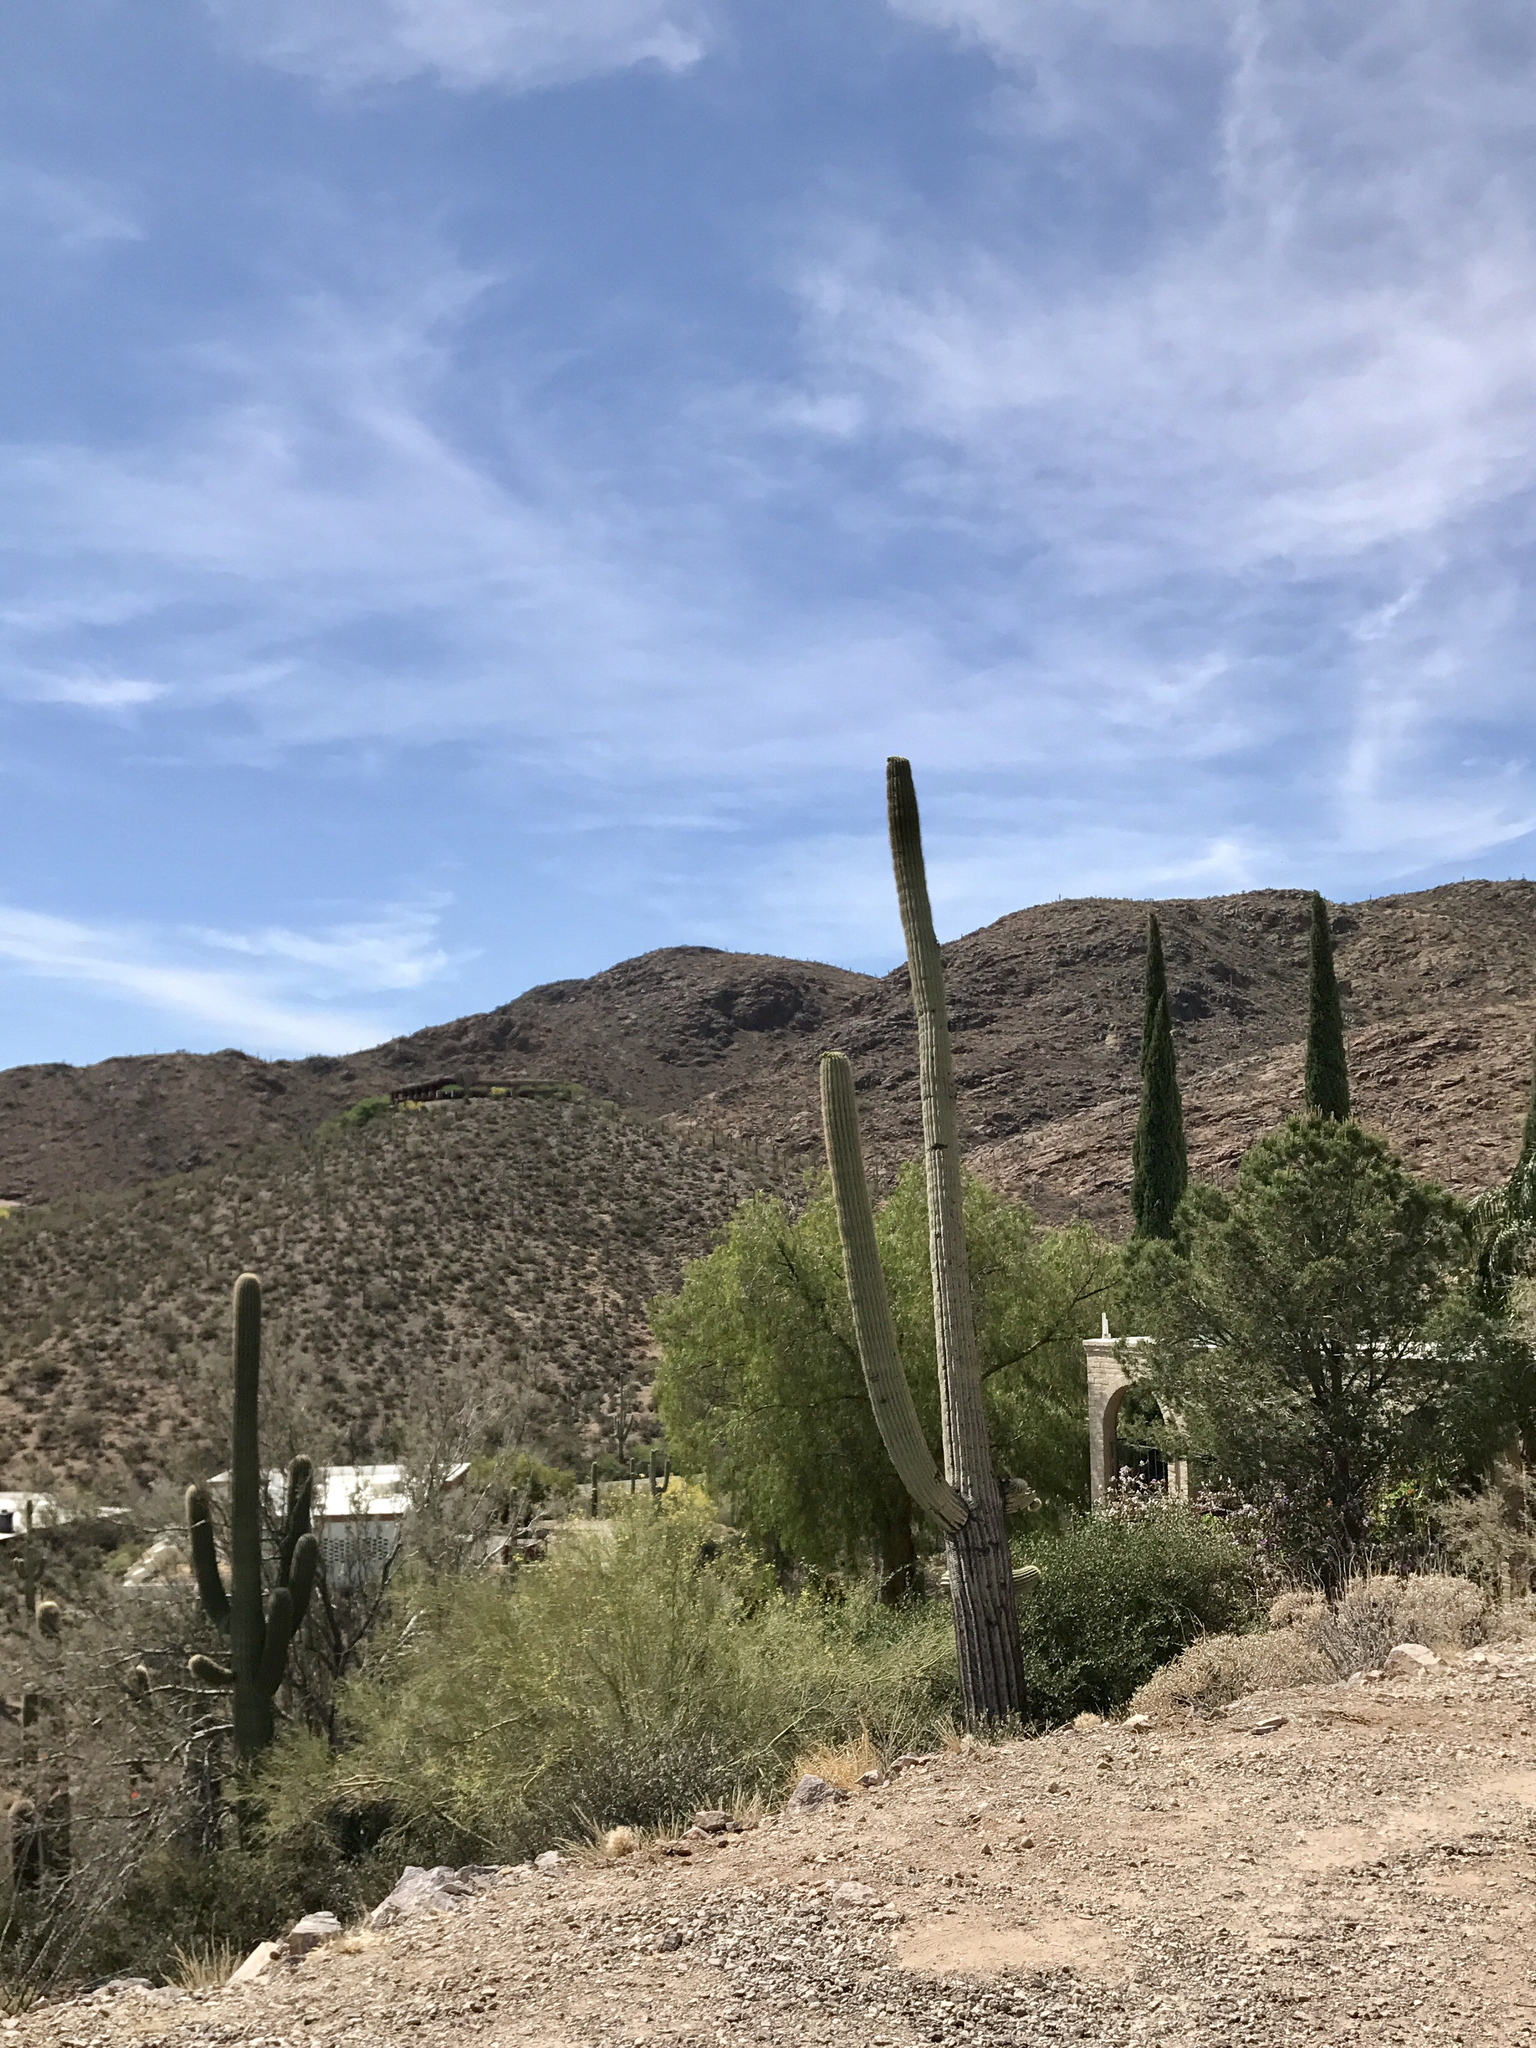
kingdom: Plantae
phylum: Tracheophyta
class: Magnoliopsida
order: Caryophyllales
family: Cactaceae
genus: Carnegiea
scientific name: Carnegiea gigantea
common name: Saguaro
